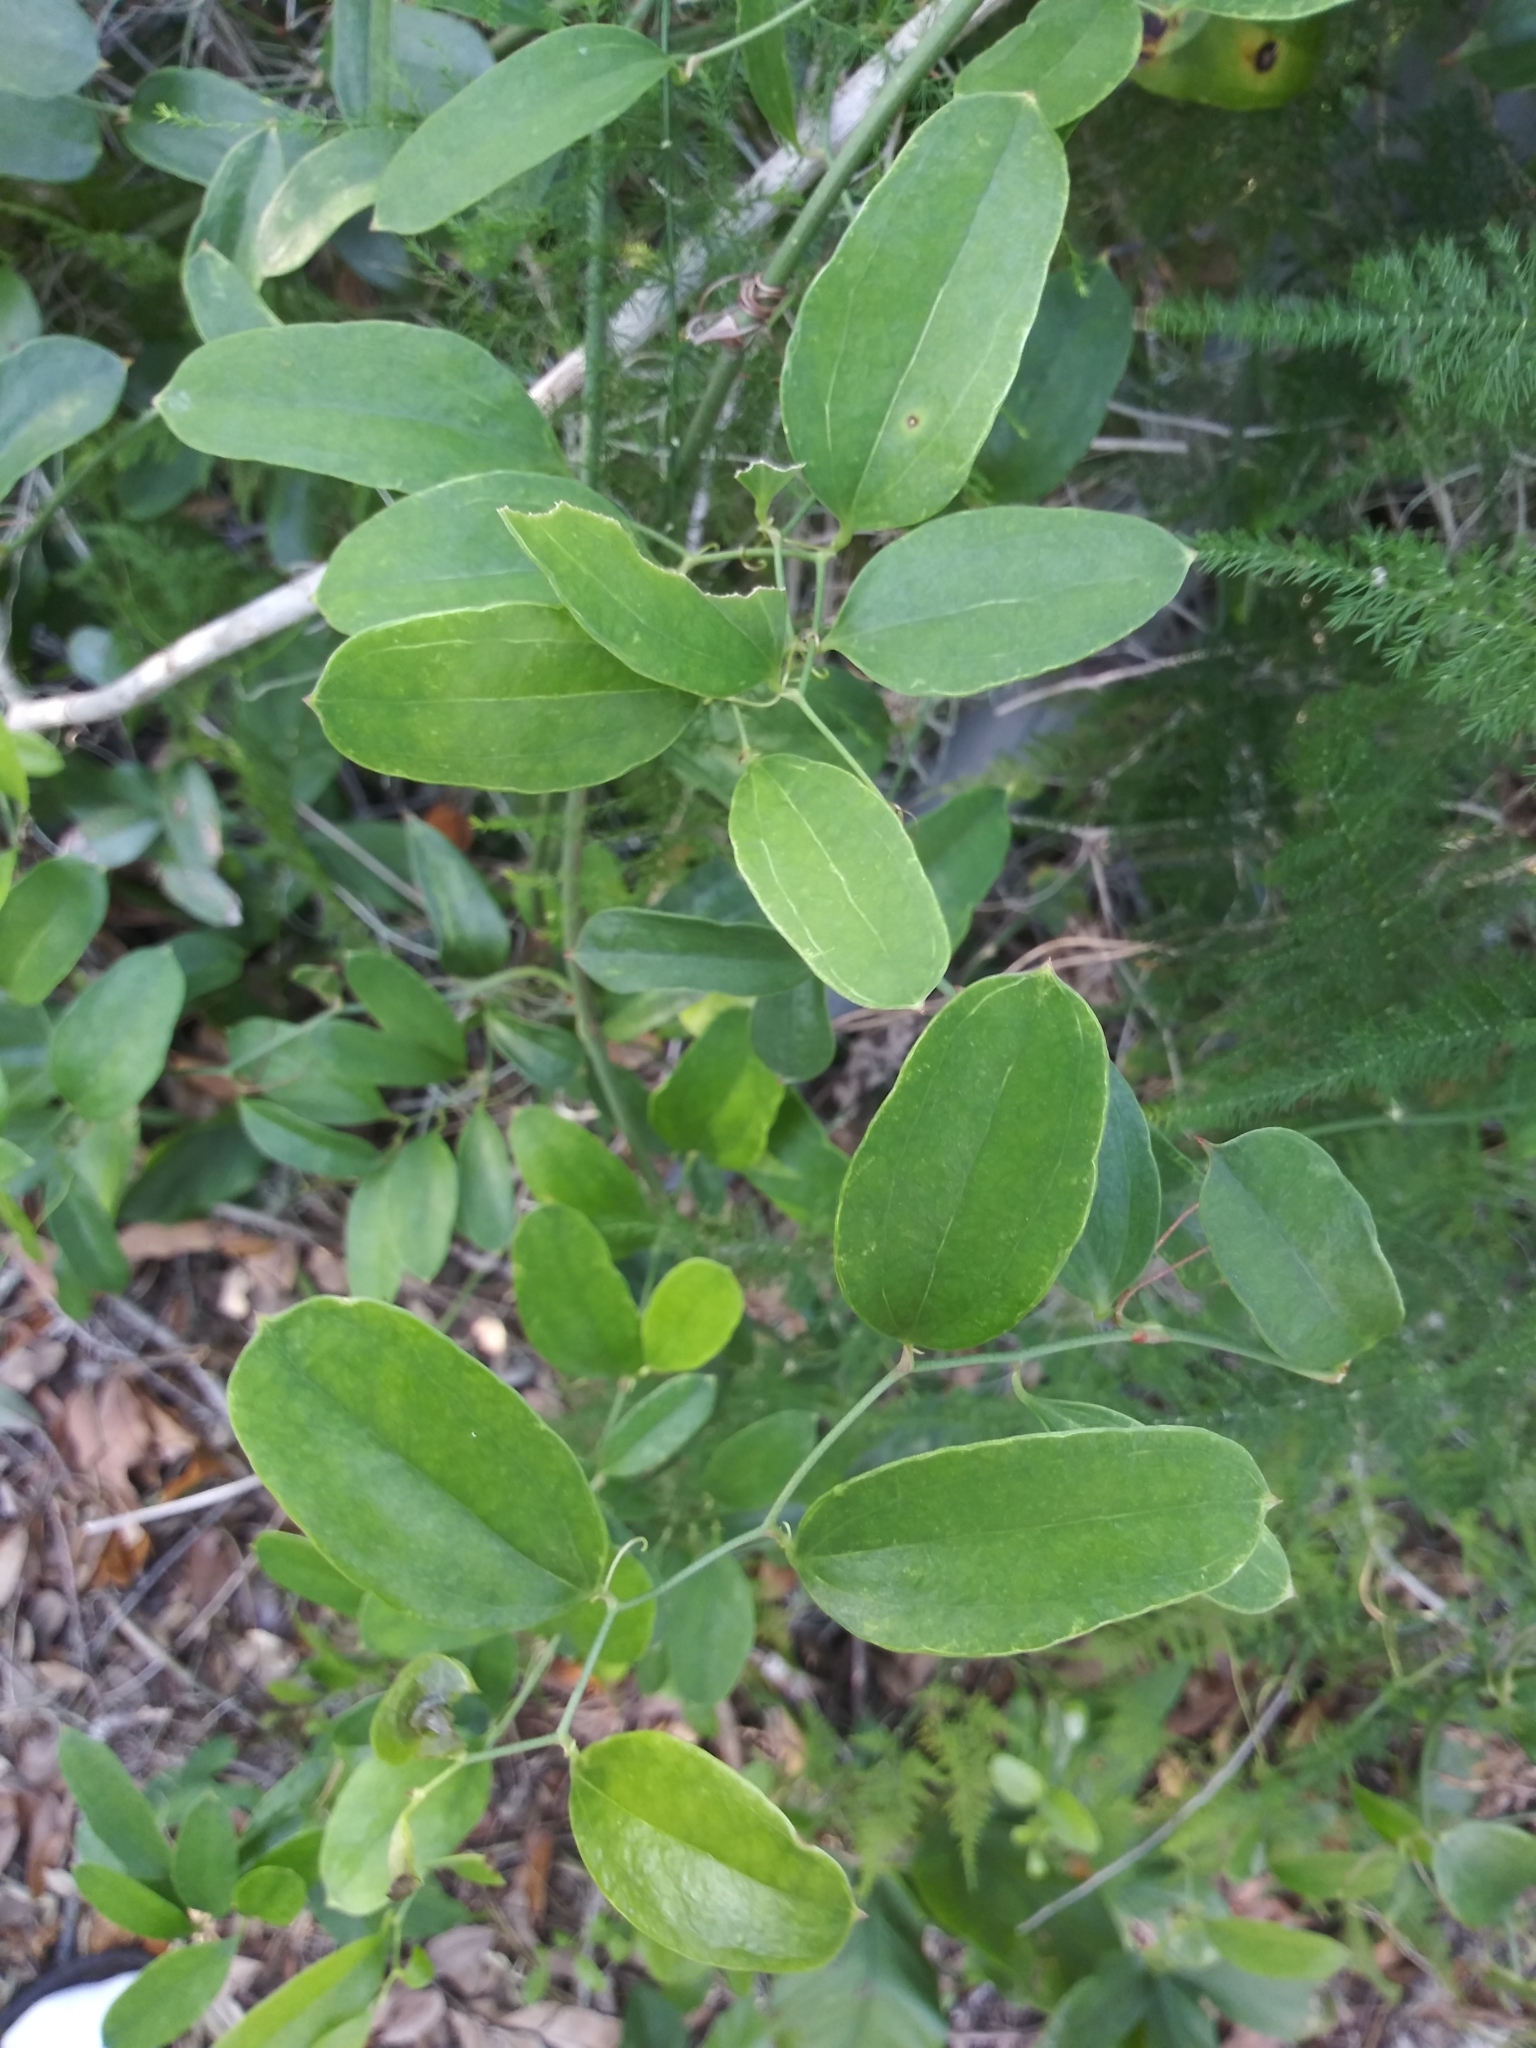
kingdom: Plantae
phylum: Tracheophyta
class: Liliopsida
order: Liliales
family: Smilacaceae
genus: Smilax
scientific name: Smilax auriculata
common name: Wild bamboo
